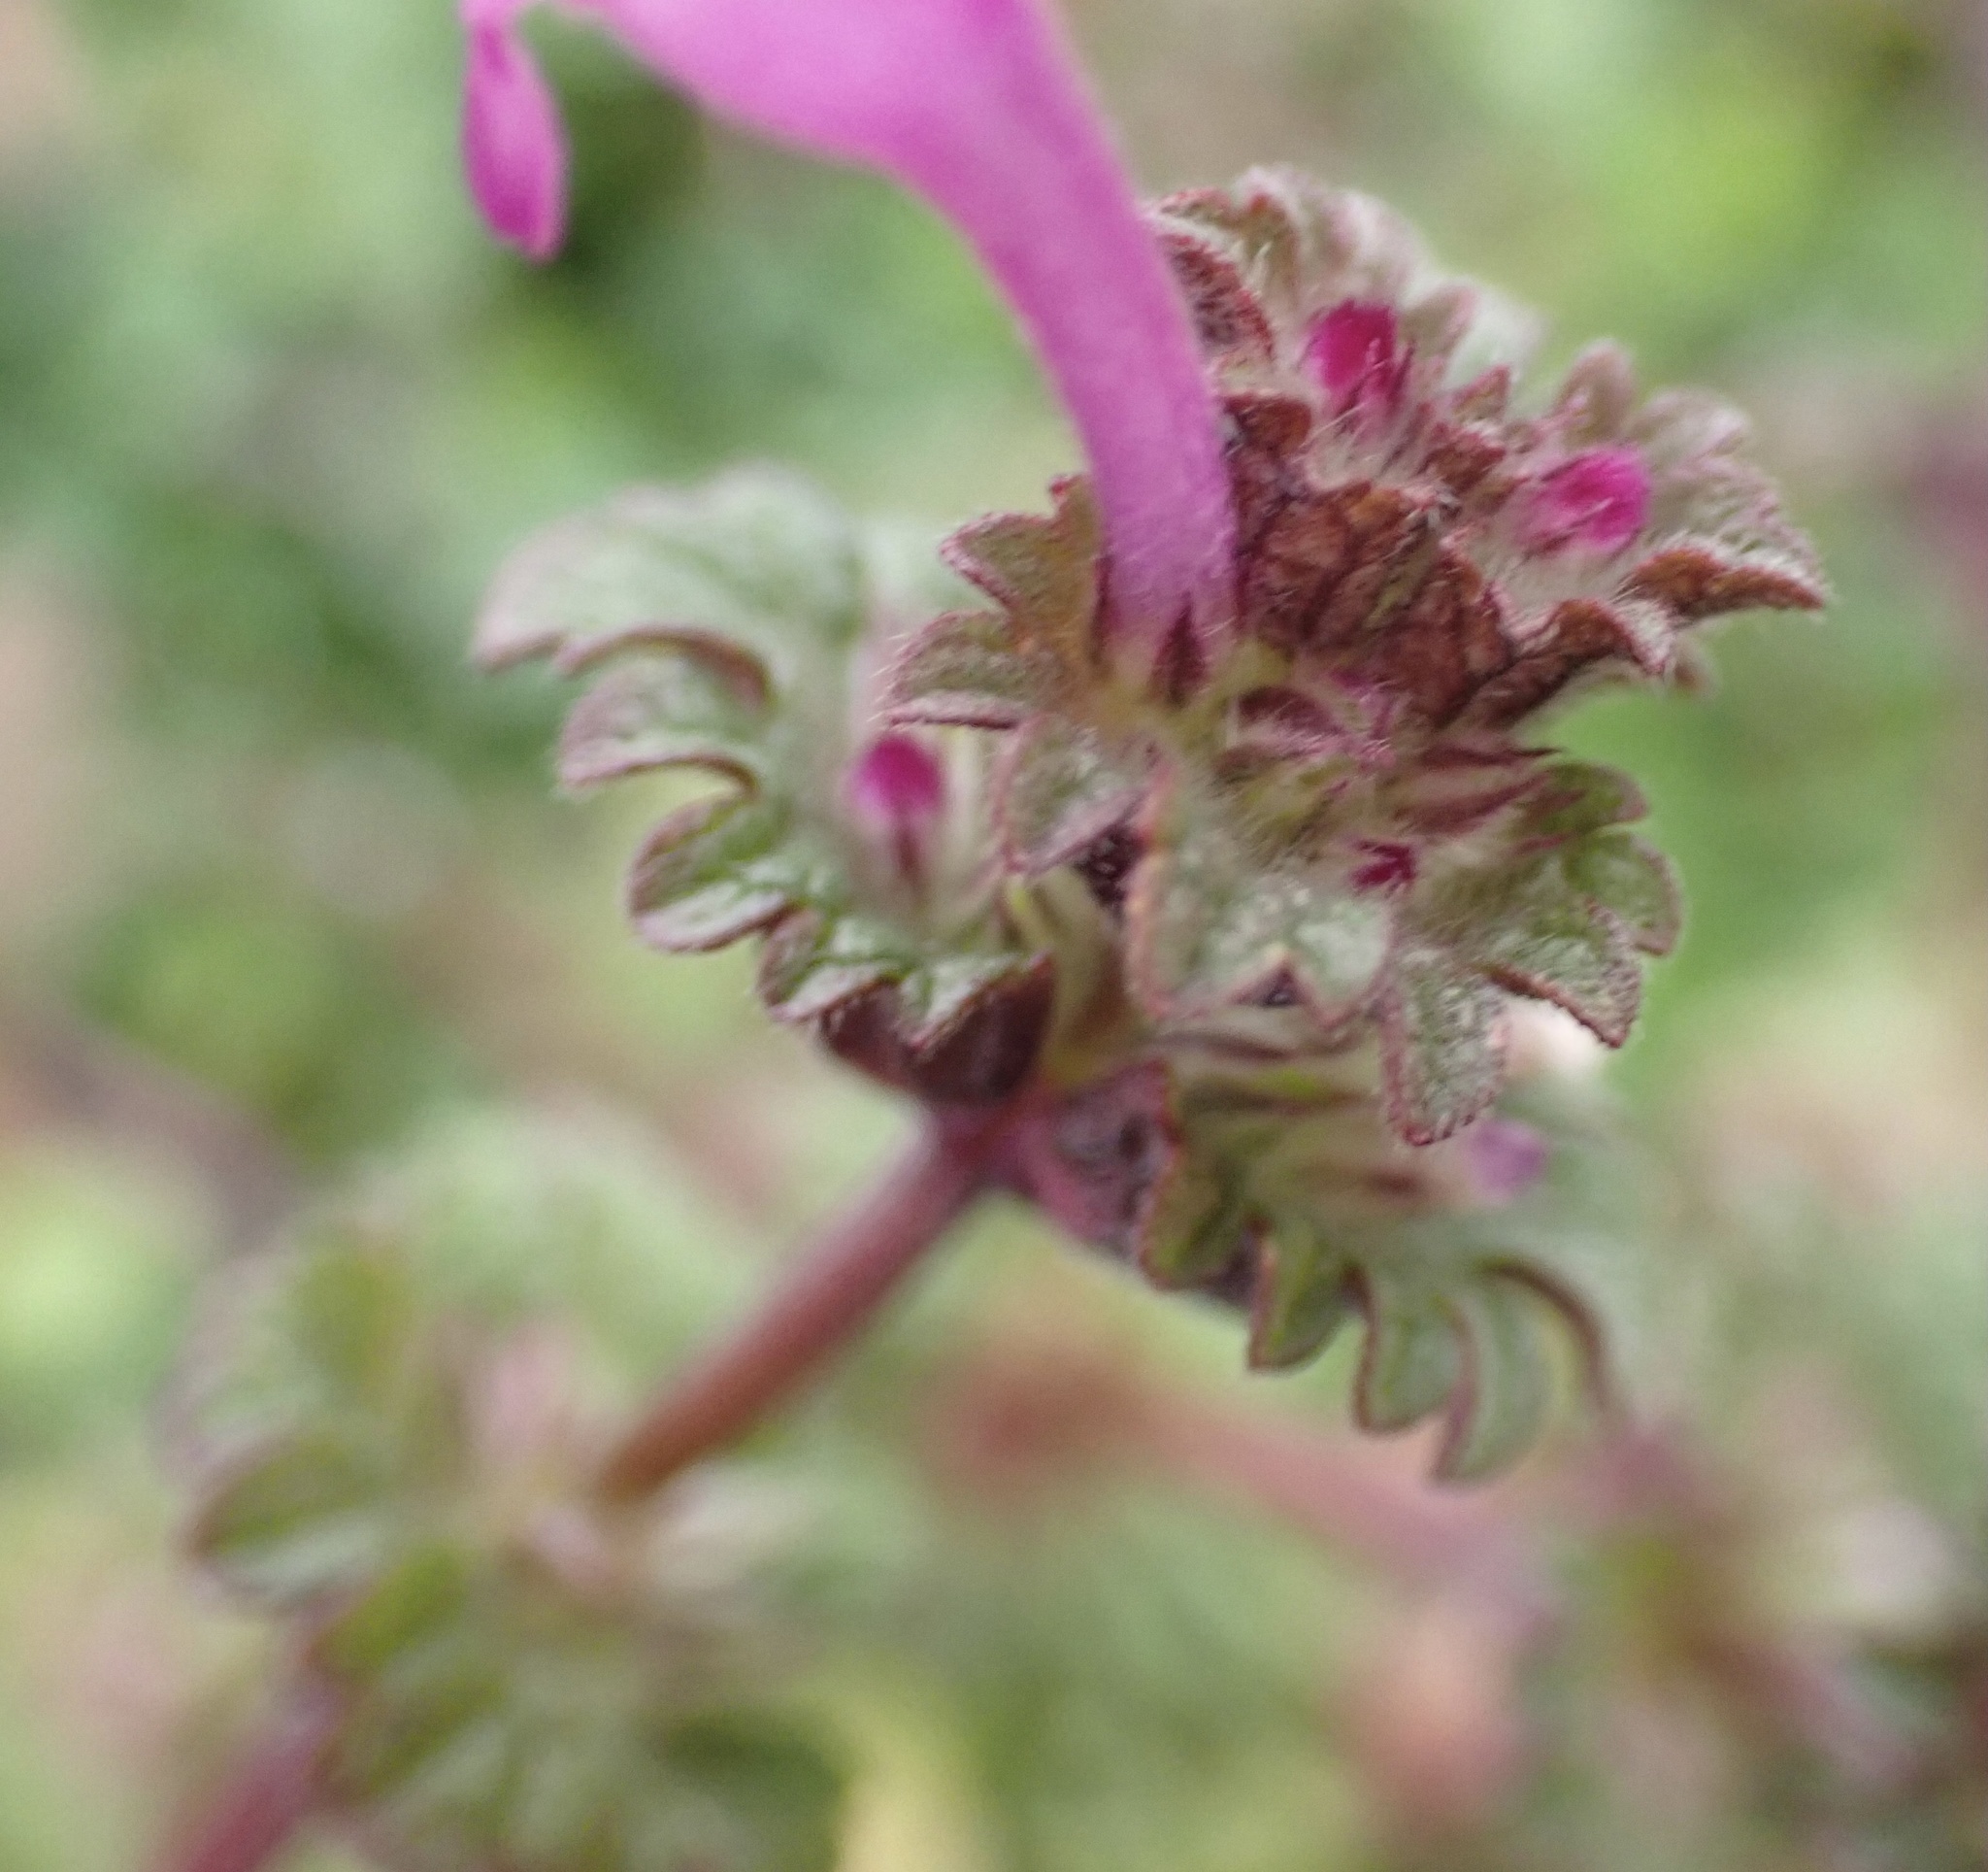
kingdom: Plantae
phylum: Tracheophyta
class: Magnoliopsida
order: Lamiales
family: Lamiaceae
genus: Lamium
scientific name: Lamium amplexicaule
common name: Henbit dead-nettle
